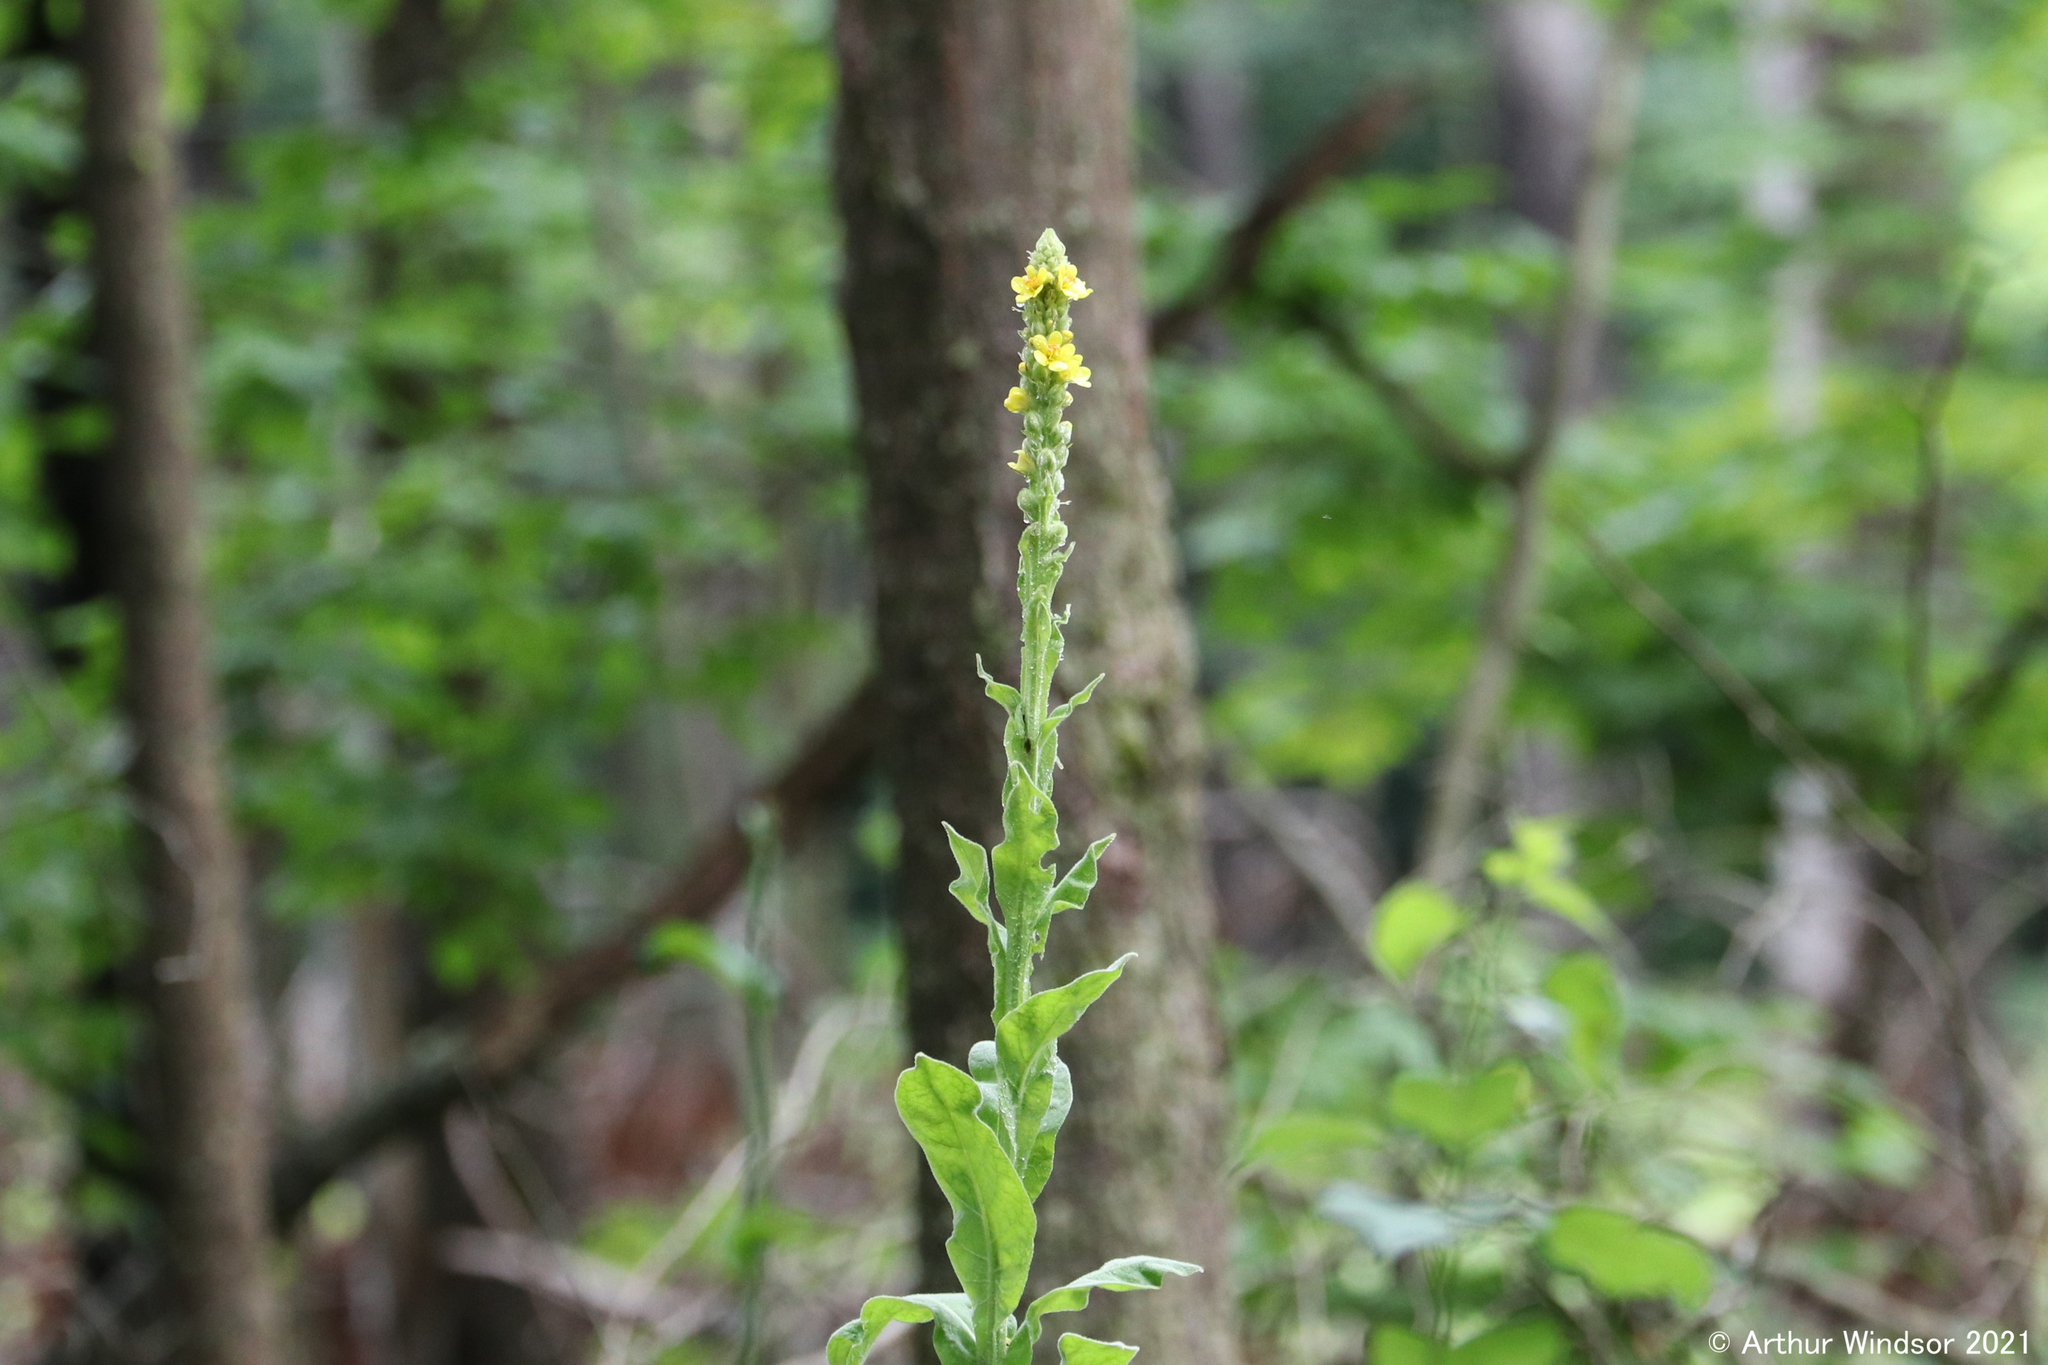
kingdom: Plantae
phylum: Tracheophyta
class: Magnoliopsida
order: Lamiales
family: Scrophulariaceae
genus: Verbascum
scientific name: Verbascum thapsus
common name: Common mullein
